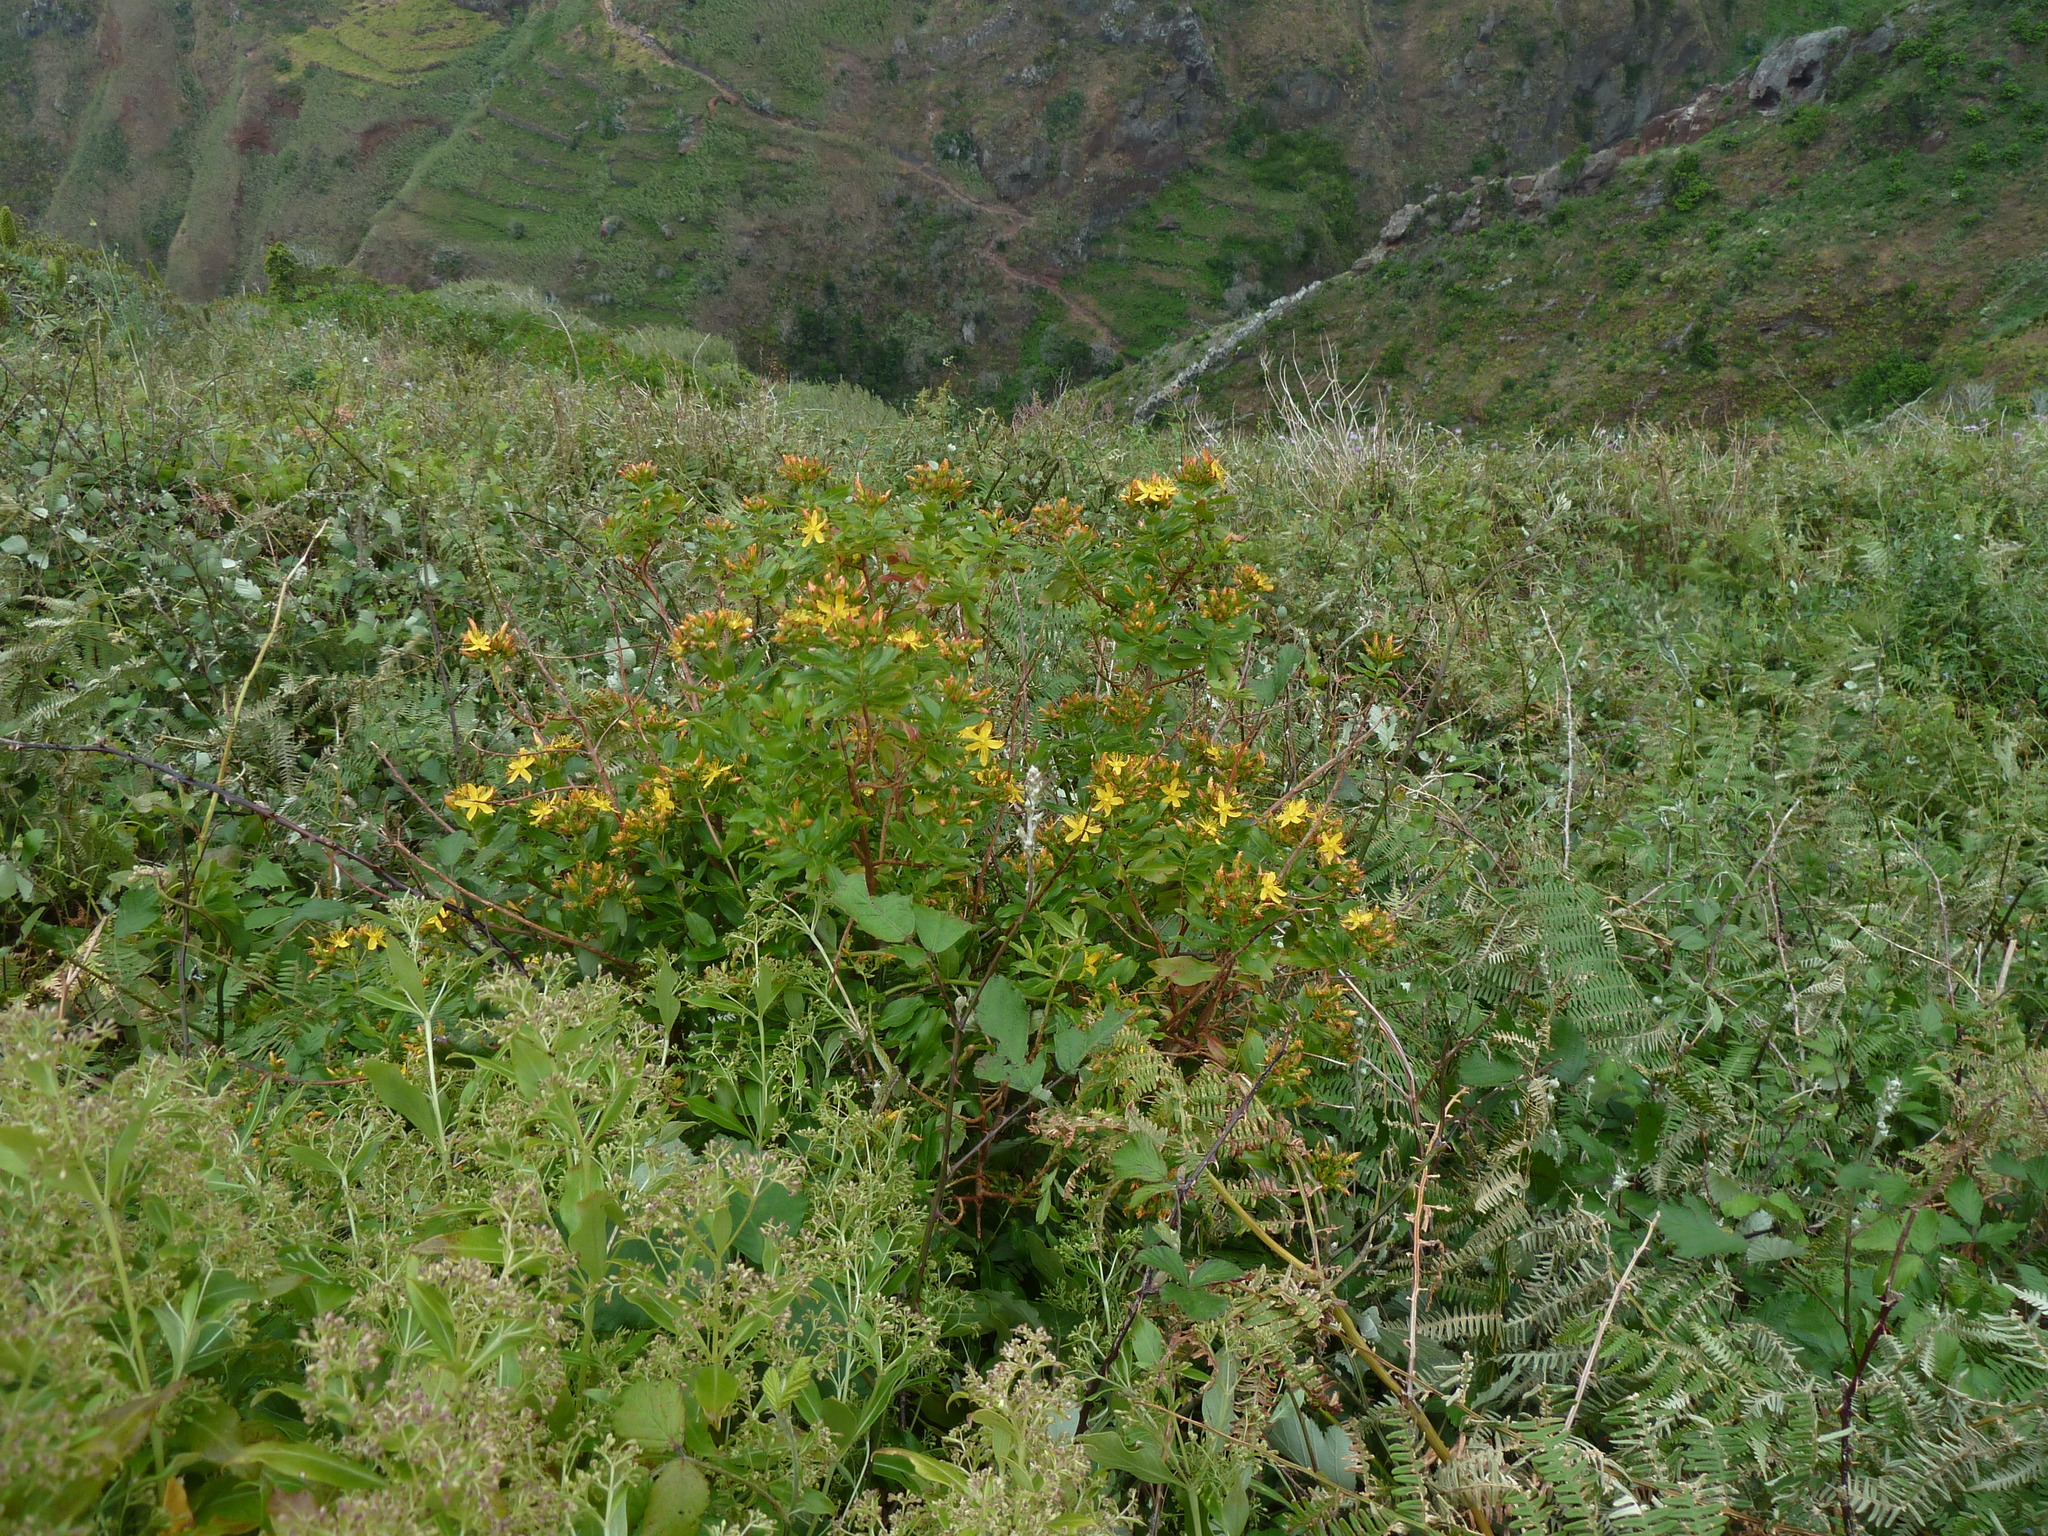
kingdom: Plantae
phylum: Tracheophyta
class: Magnoliopsida
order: Malpighiales
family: Hypericaceae
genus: Hypericum
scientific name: Hypericum canariense
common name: Canary island st. johnswort
